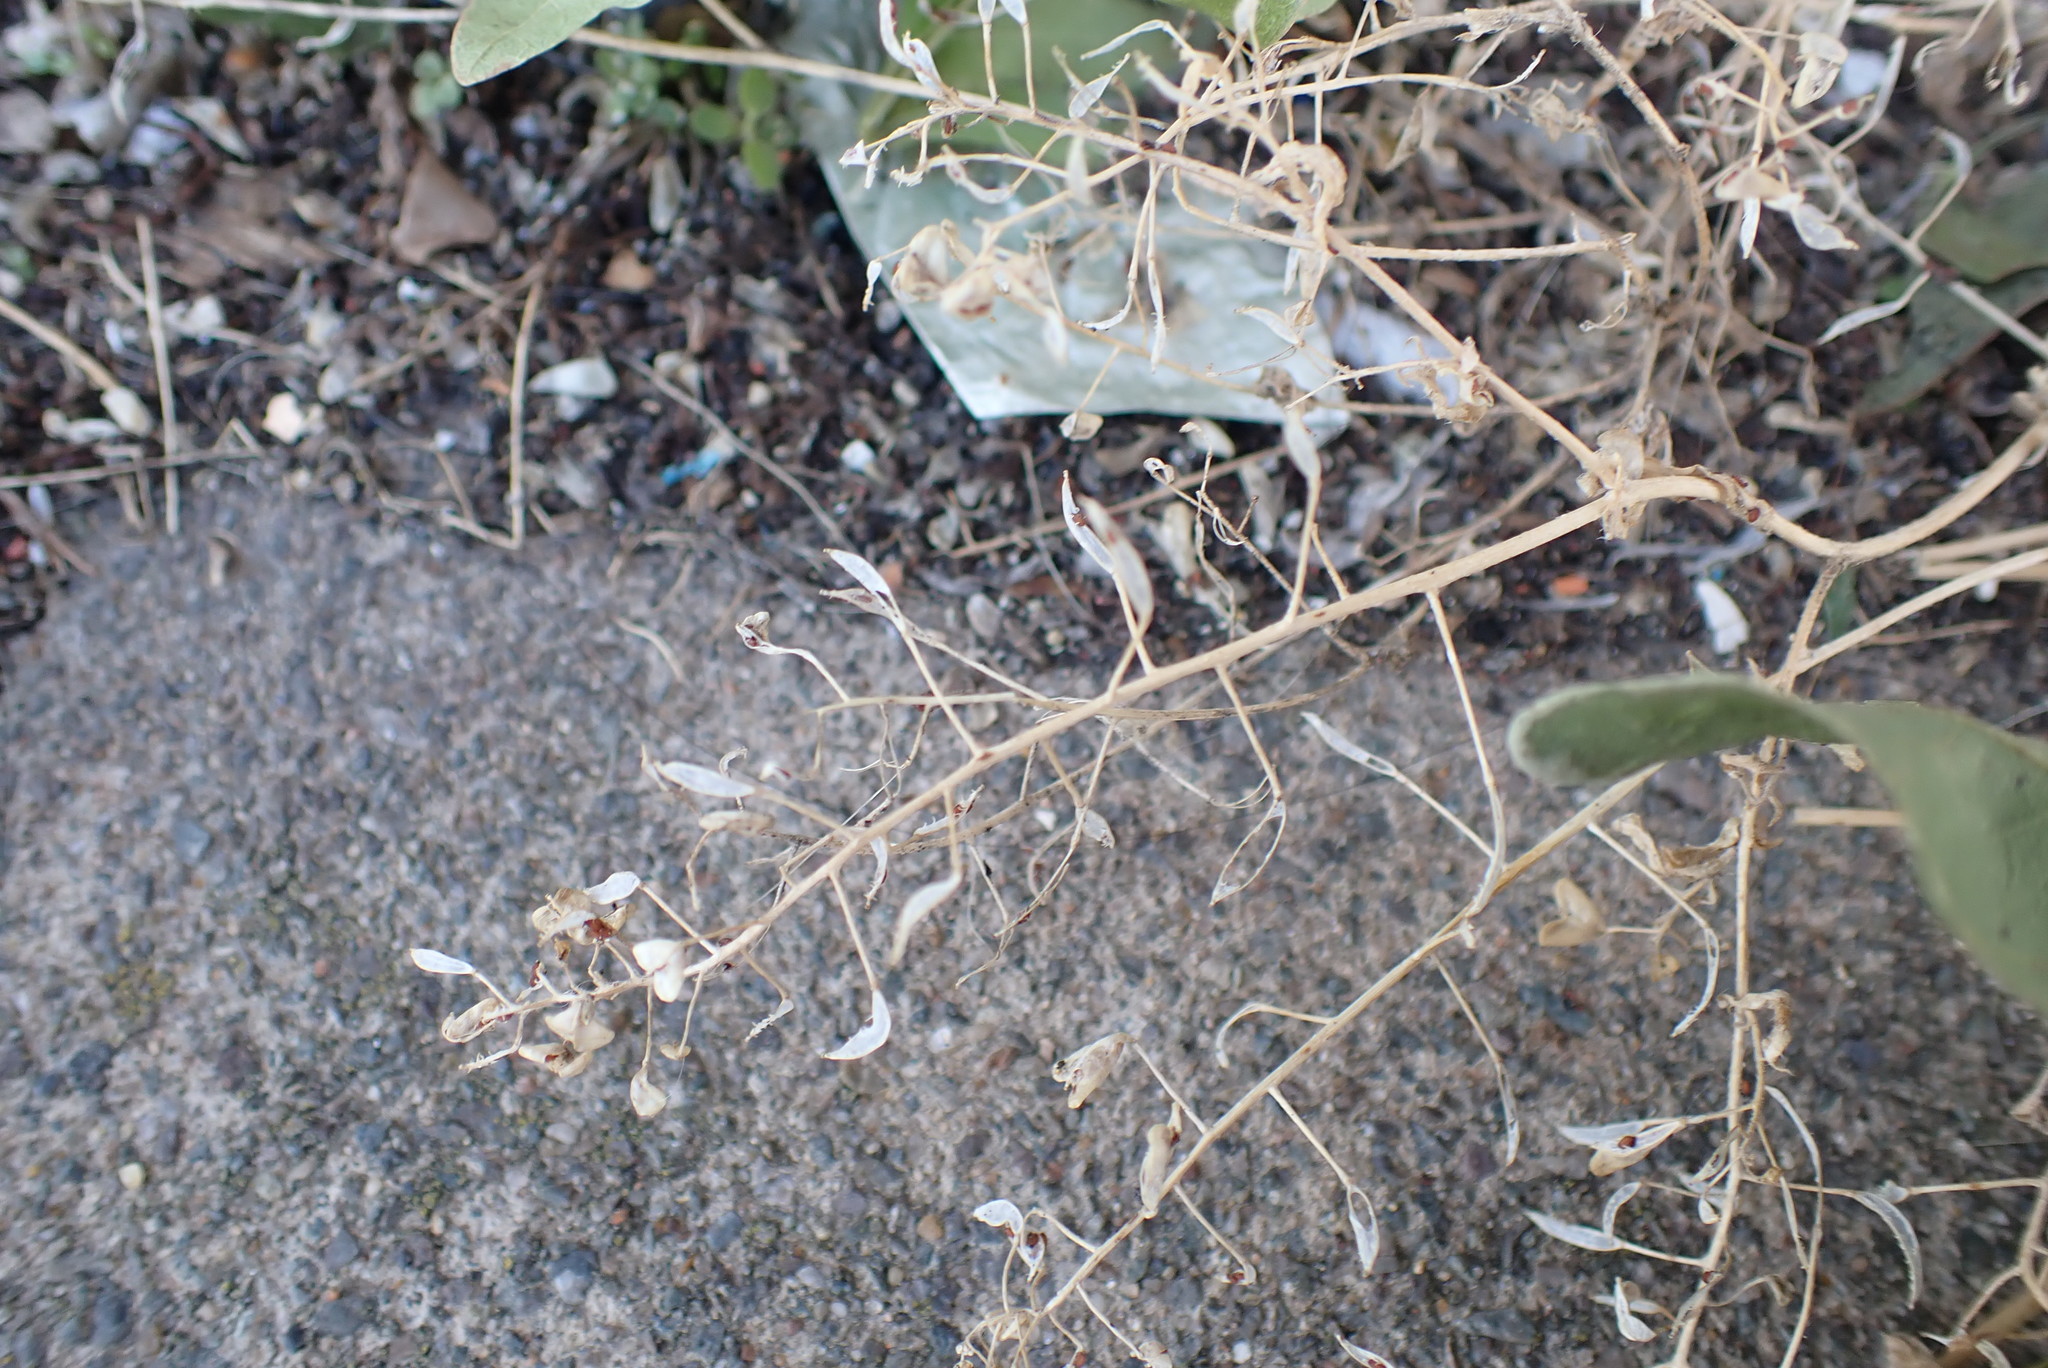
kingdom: Plantae
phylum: Tracheophyta
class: Magnoliopsida
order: Brassicales
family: Brassicaceae
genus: Capsella
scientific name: Capsella bursa-pastoris
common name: Shepherd's purse
